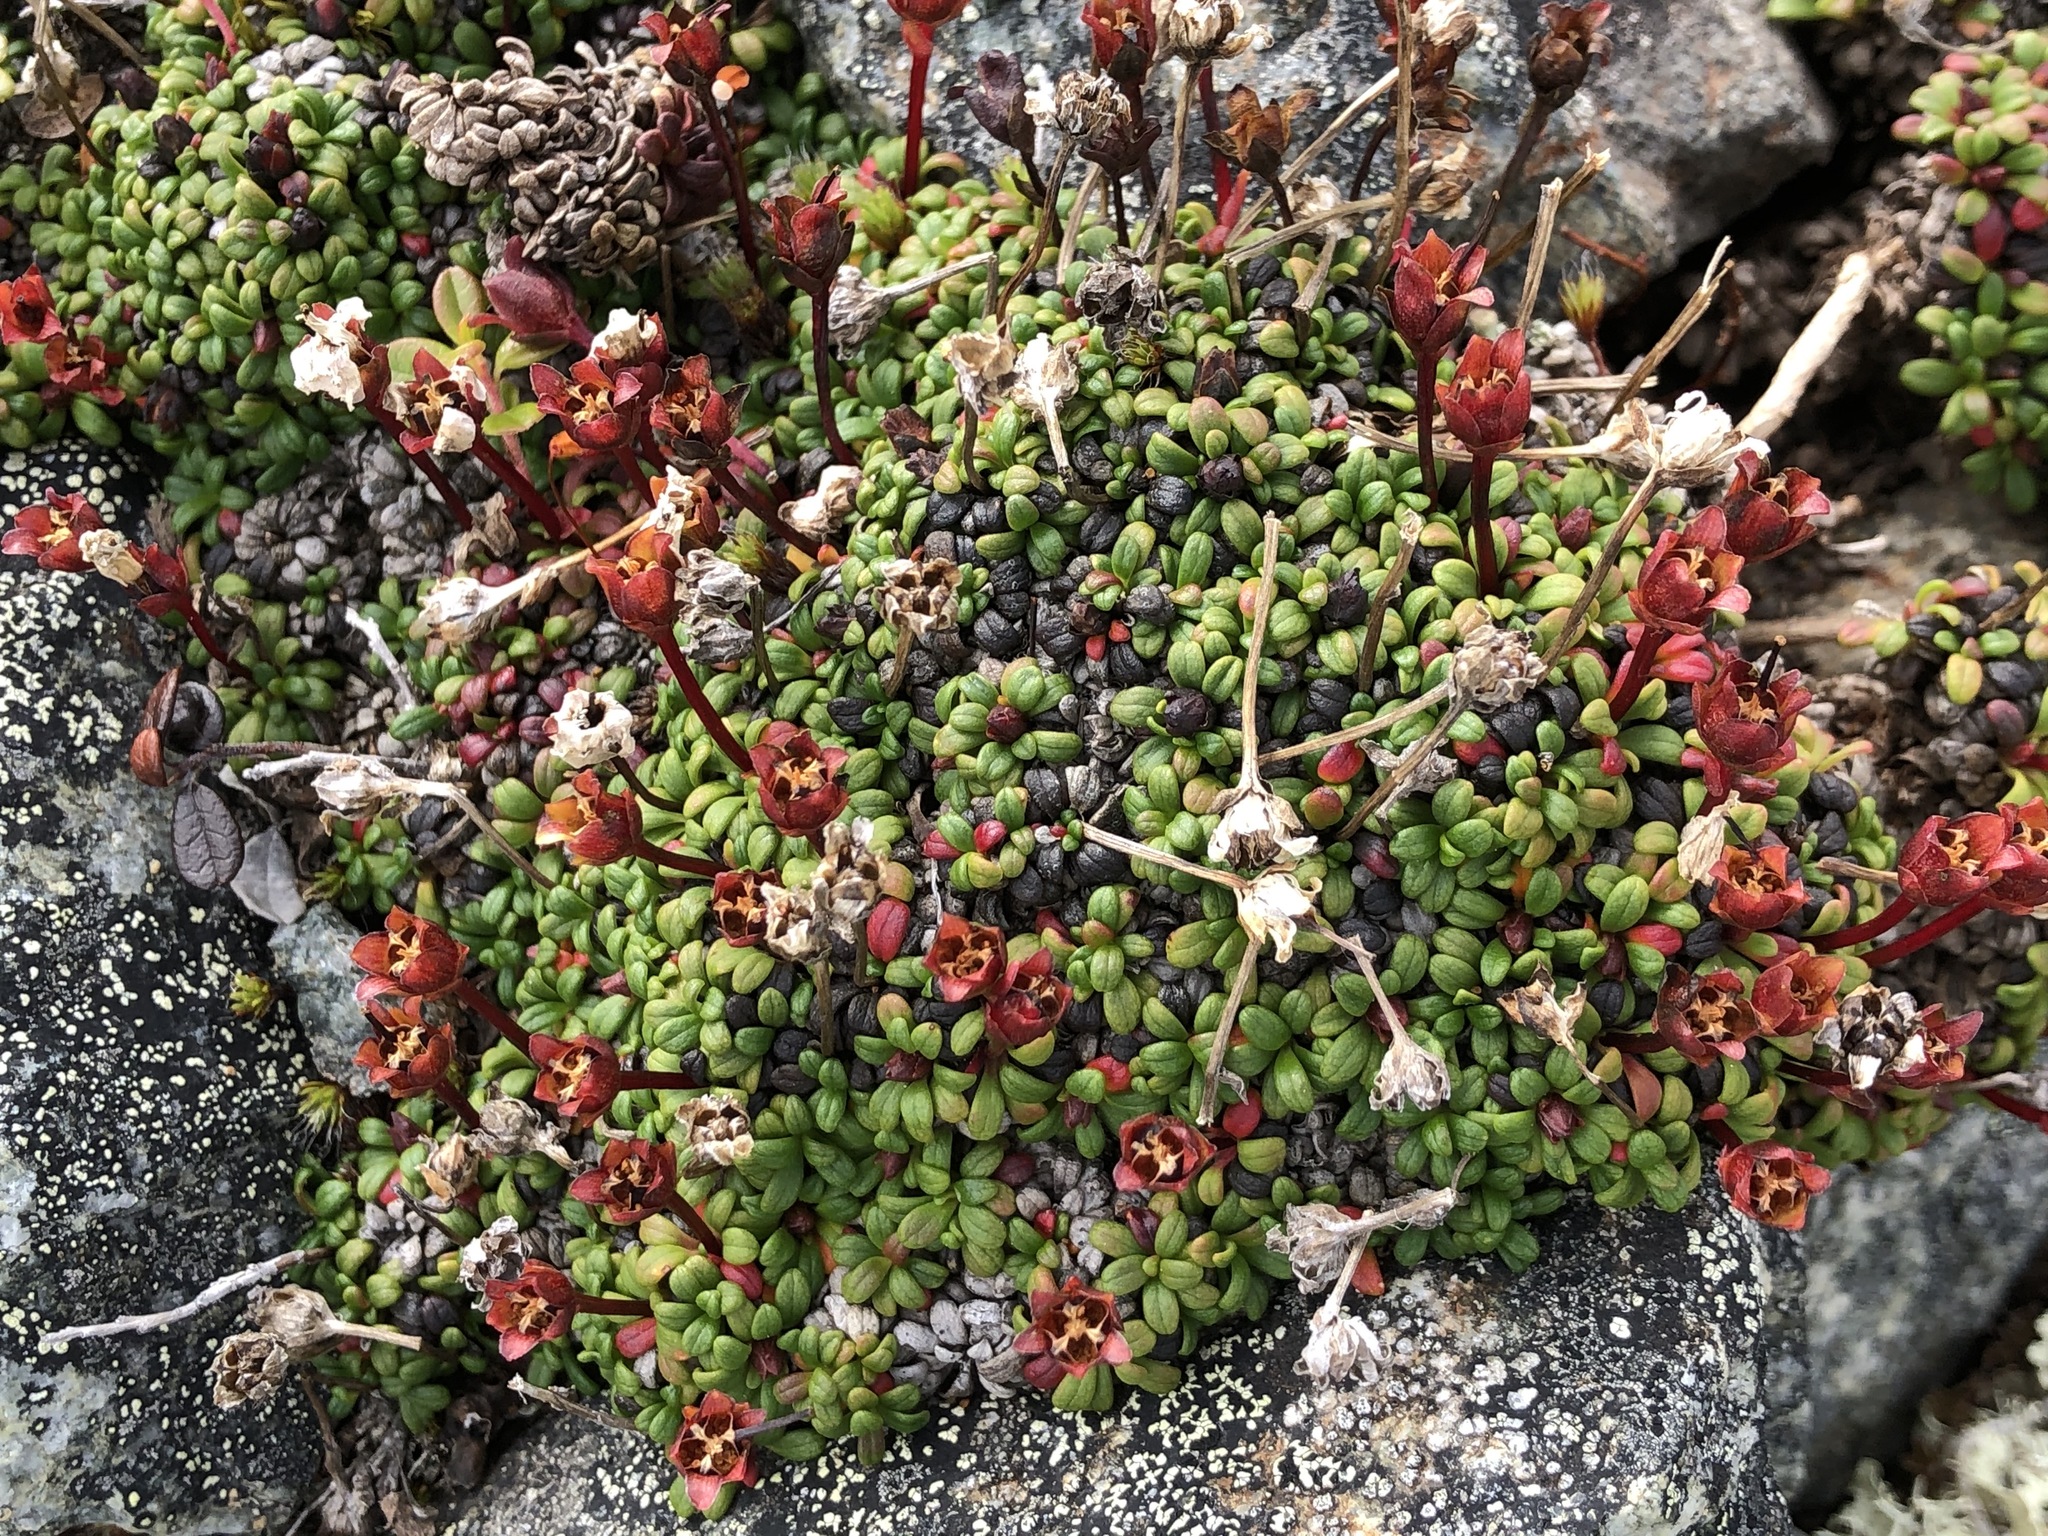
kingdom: Plantae
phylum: Tracheophyta
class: Magnoliopsida
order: Ericales
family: Diapensiaceae
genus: Diapensia
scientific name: Diapensia obovata
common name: Alaska diapensia
